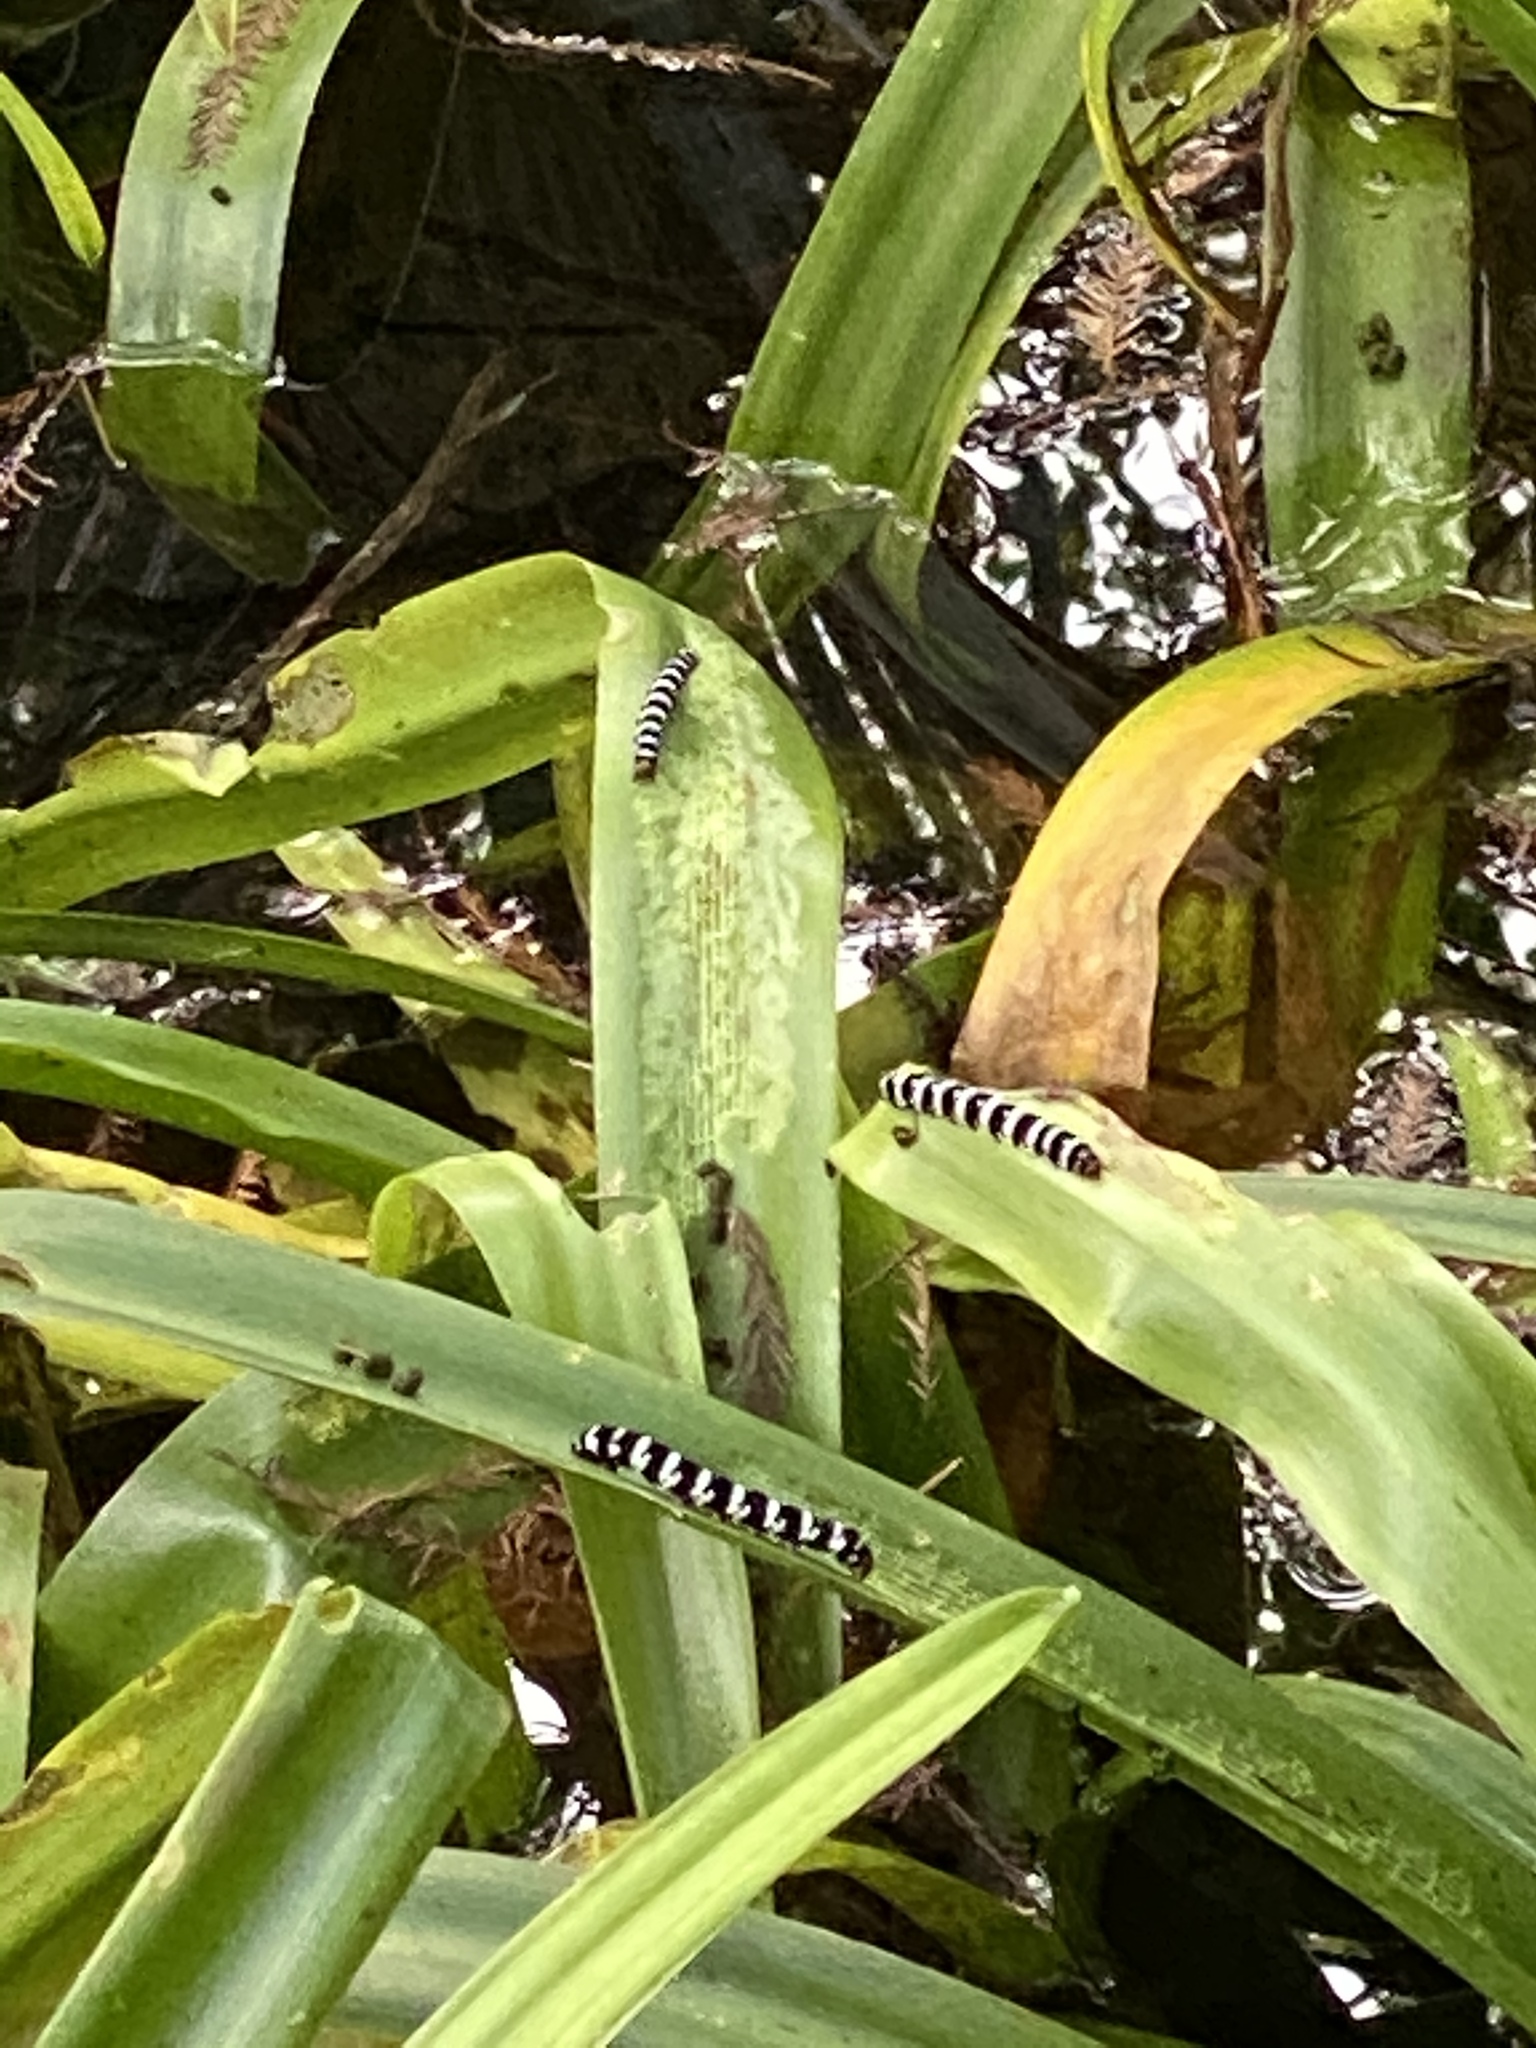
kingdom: Animalia
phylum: Arthropoda
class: Insecta
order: Lepidoptera
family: Noctuidae
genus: Xanthopastis
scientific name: Xanthopastis regnatrix
